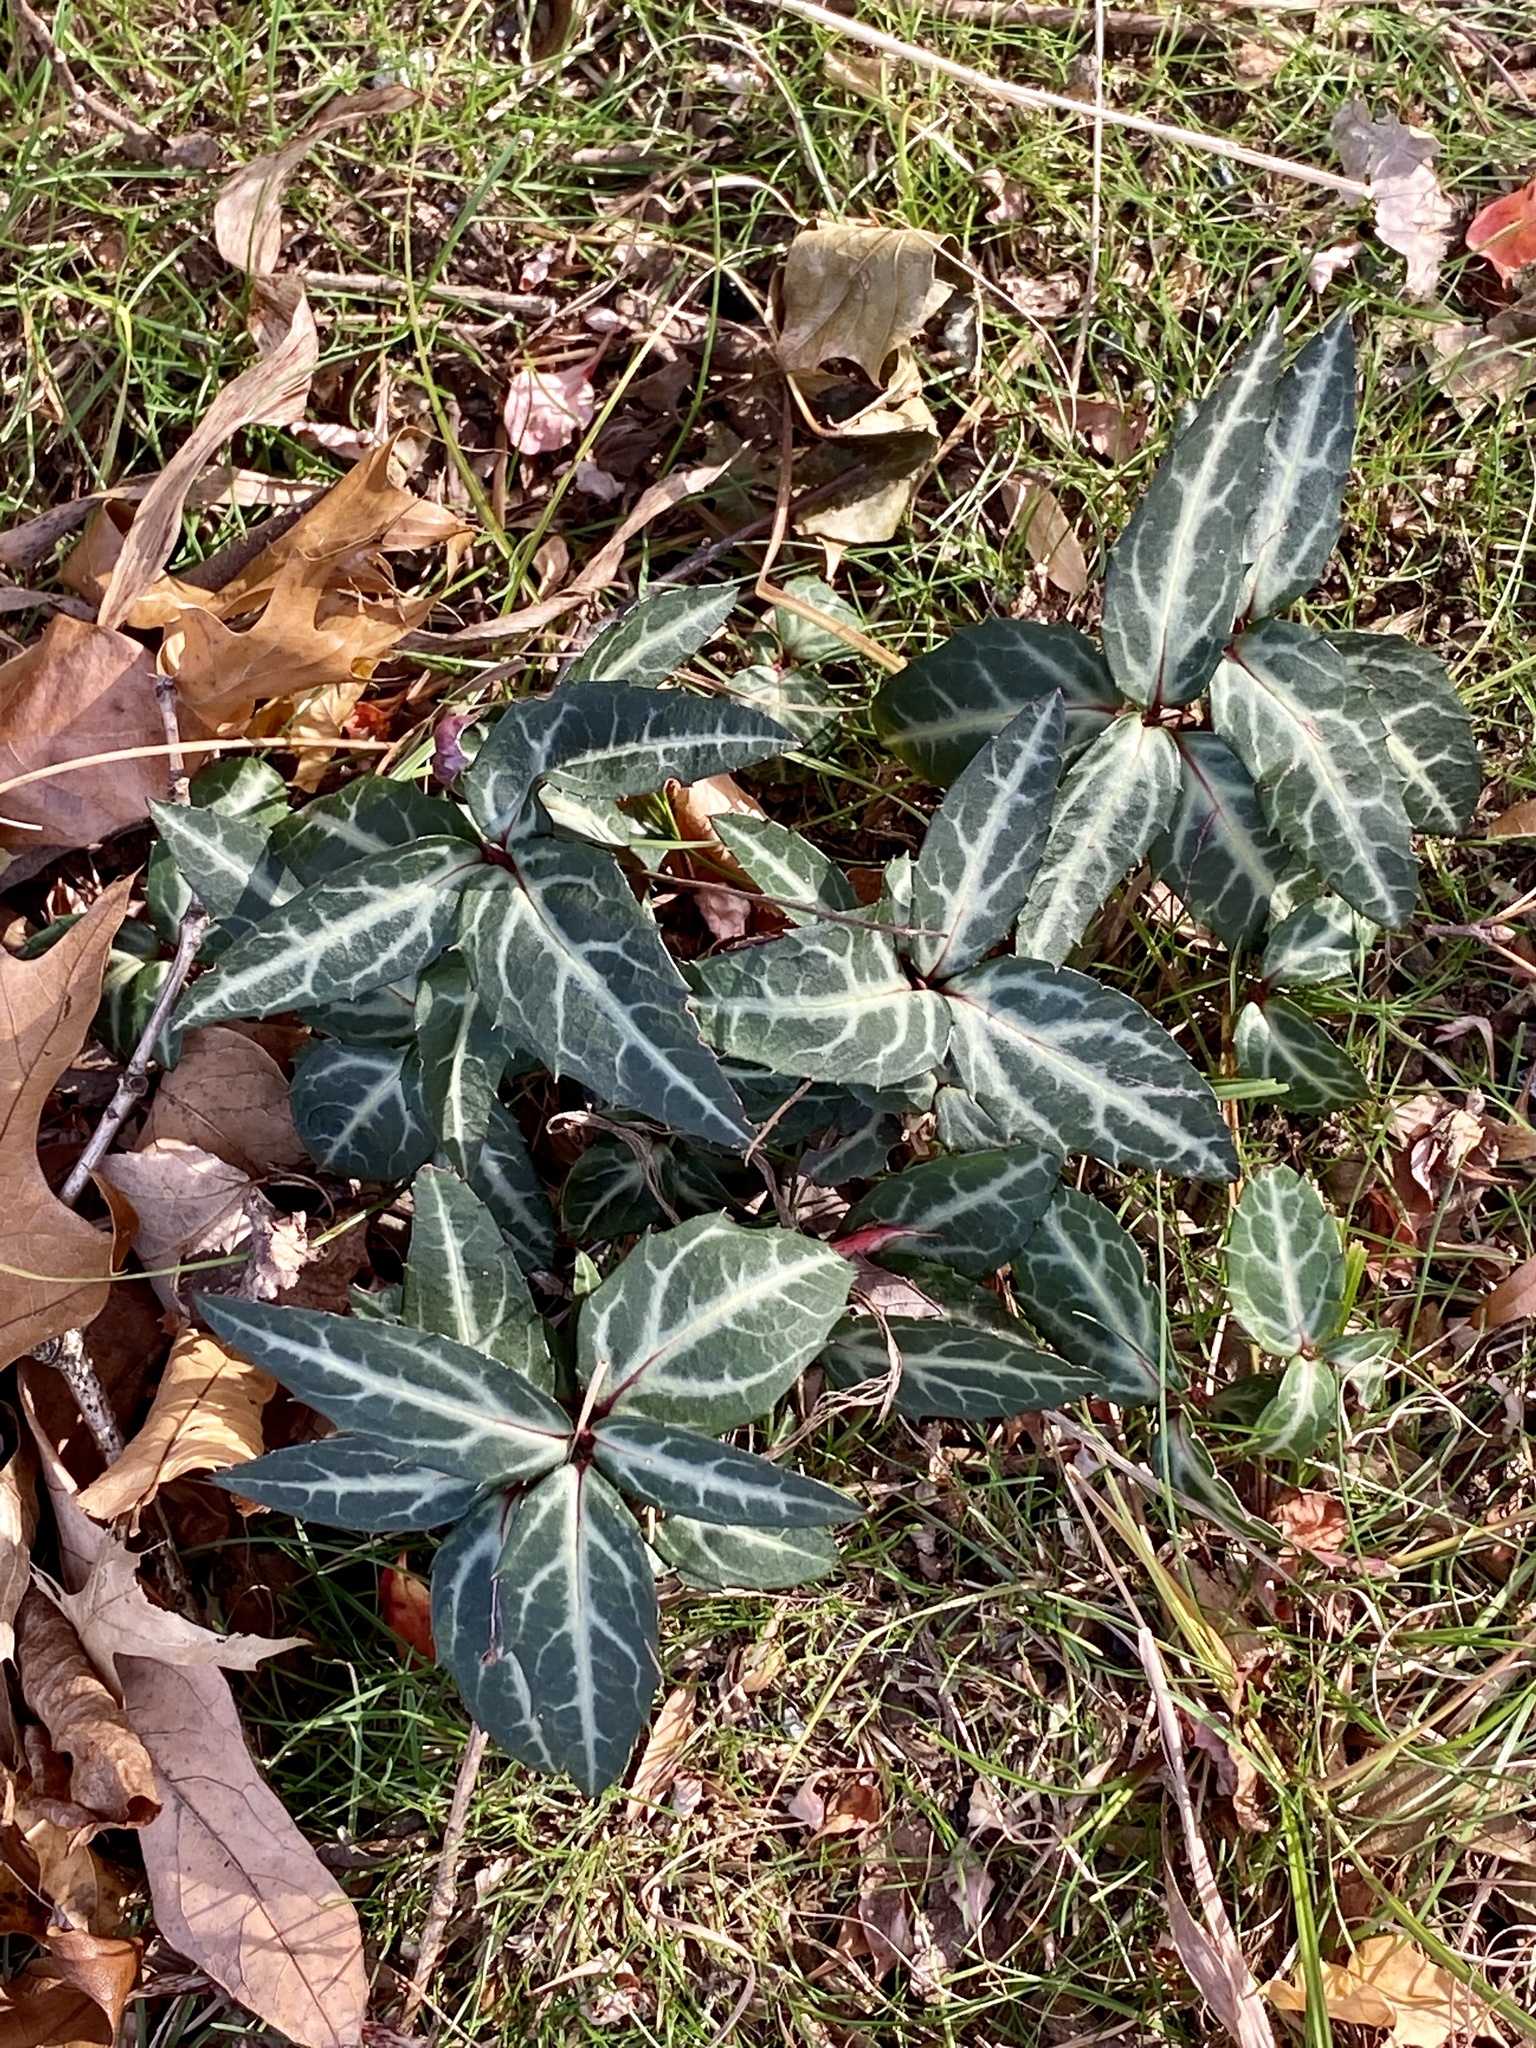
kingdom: Plantae
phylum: Tracheophyta
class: Magnoliopsida
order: Ericales
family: Ericaceae
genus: Chimaphila
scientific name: Chimaphila maculata
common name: Spotted pipsissewa
